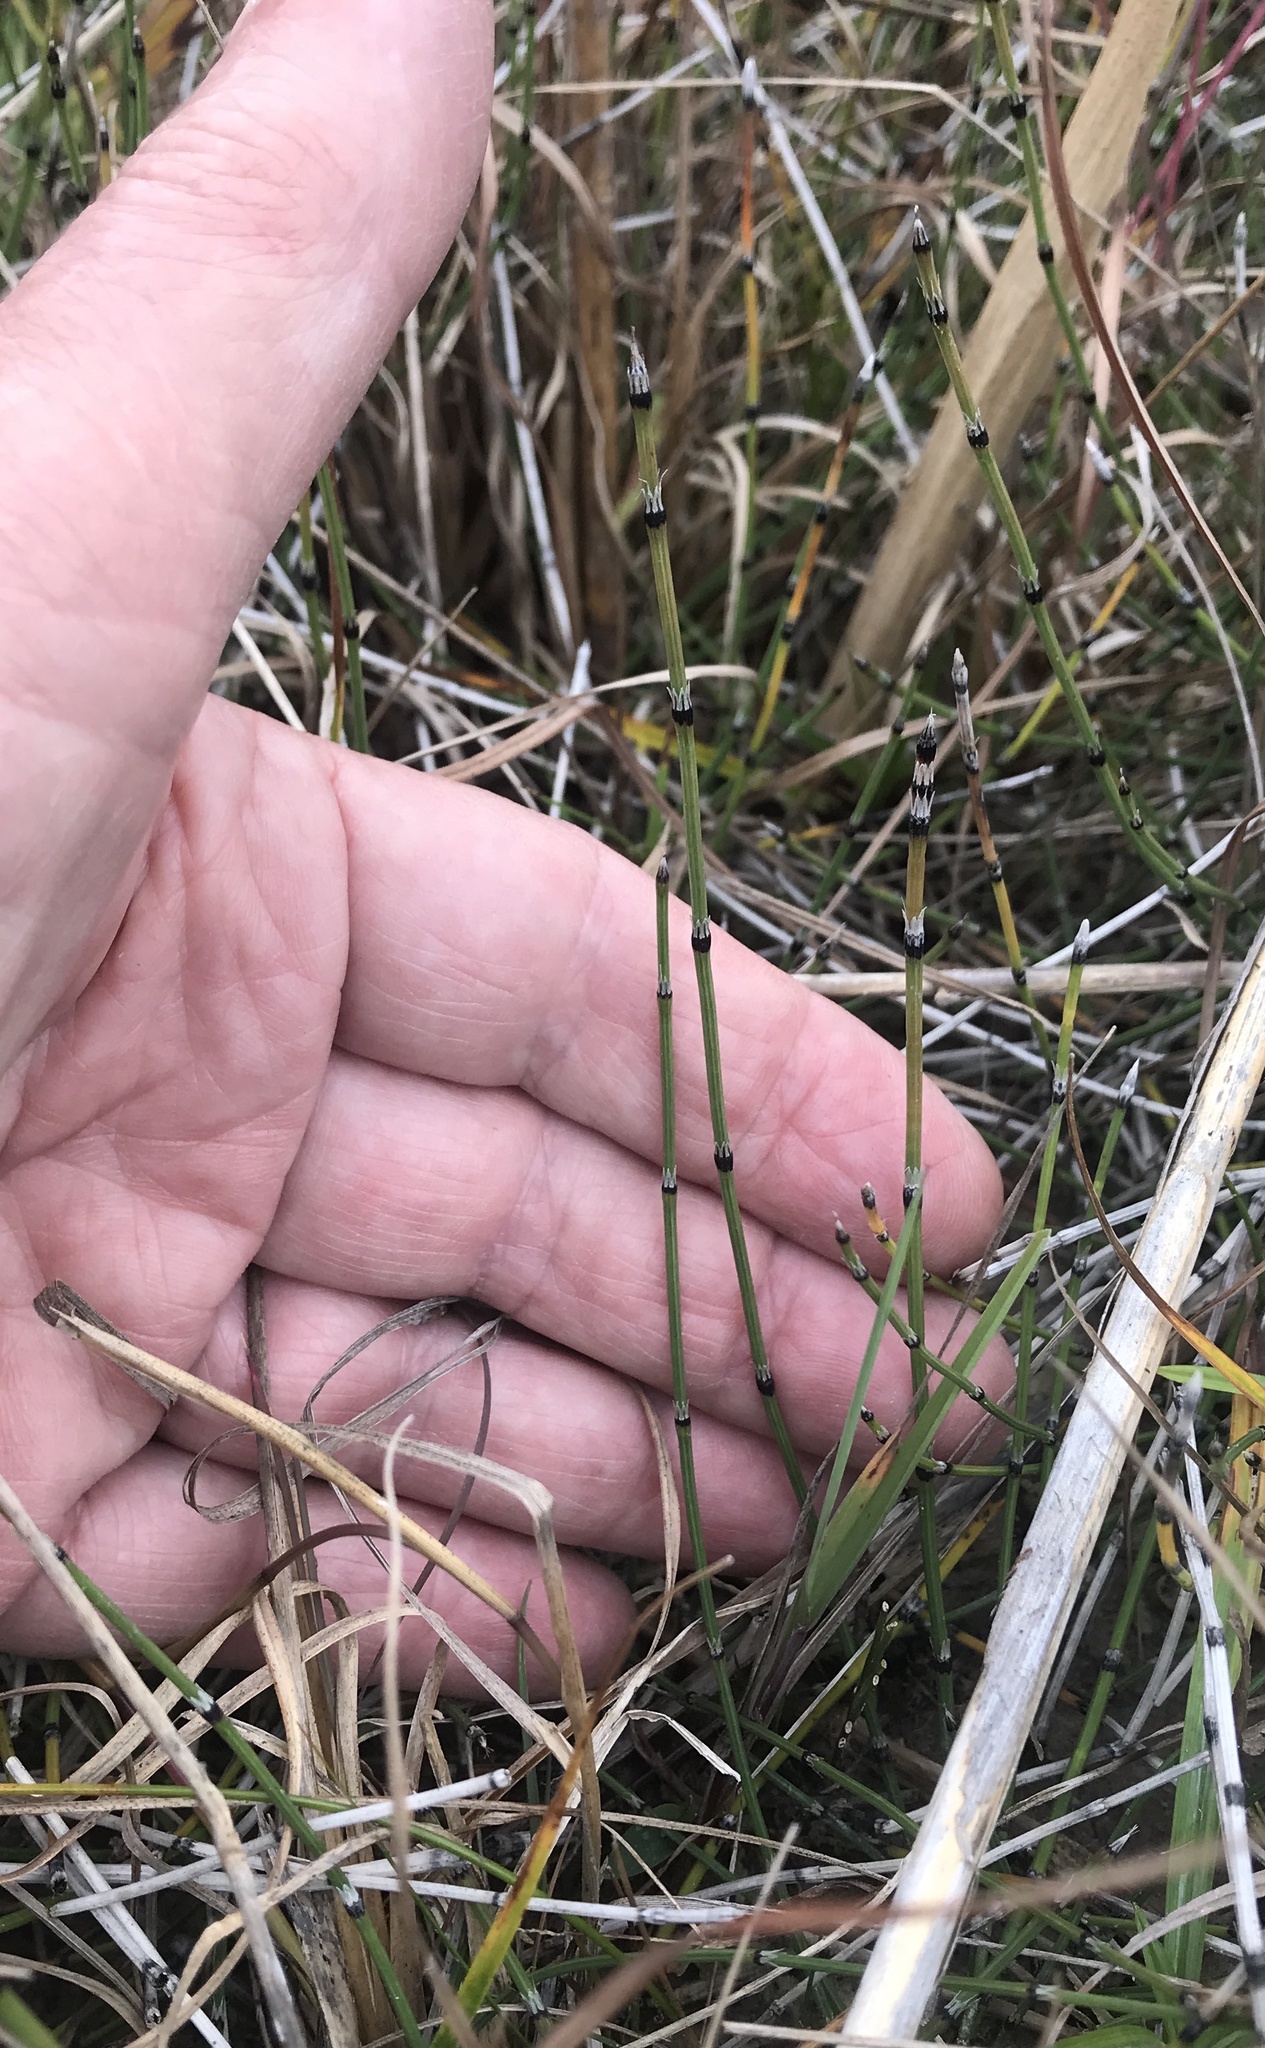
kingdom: Plantae
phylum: Tracheophyta
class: Polypodiopsida
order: Equisetales
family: Equisetaceae
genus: Equisetum
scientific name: Equisetum variegatum
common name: Variegated horsetail
